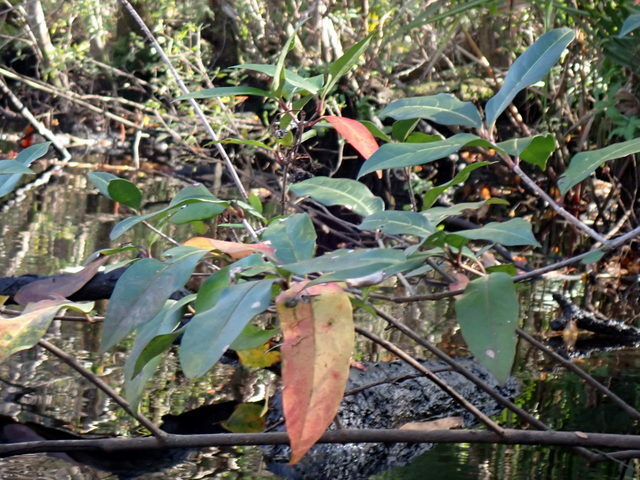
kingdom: Plantae
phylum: Tracheophyta
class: Magnoliopsida
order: Dipsacales
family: Viburnaceae
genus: Viburnum
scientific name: Viburnum nudum
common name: Possum haw
